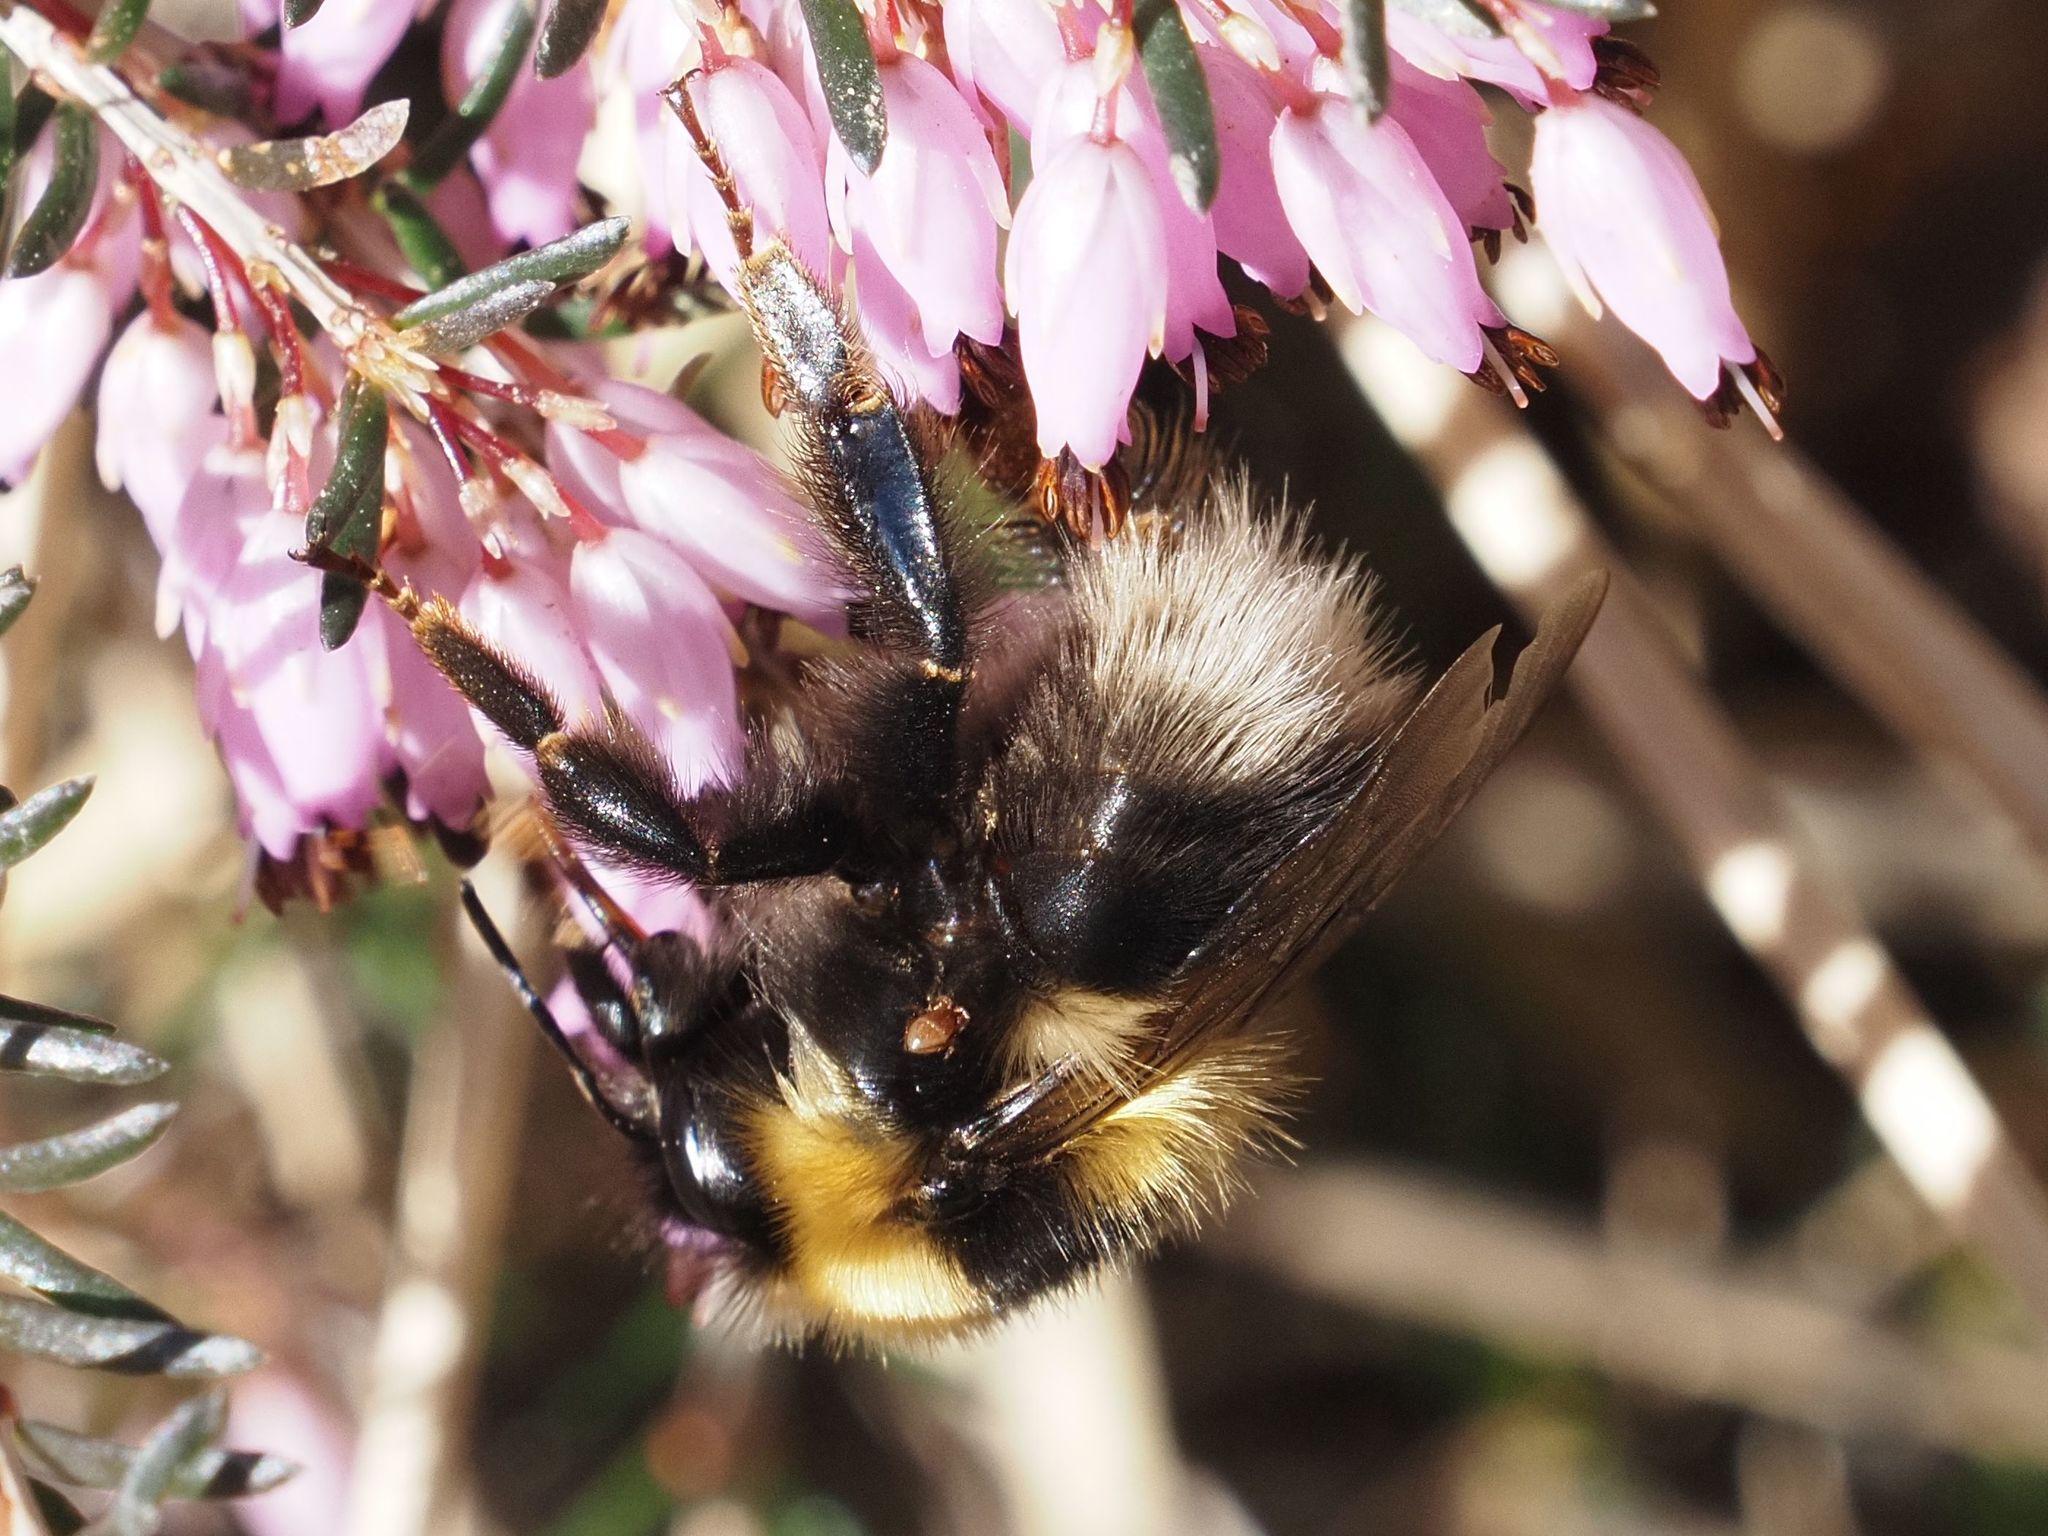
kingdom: Animalia
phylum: Arthropoda
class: Insecta
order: Hymenoptera
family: Apidae
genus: Bombus
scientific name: Bombus jonellus
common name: Heath humble-bee
